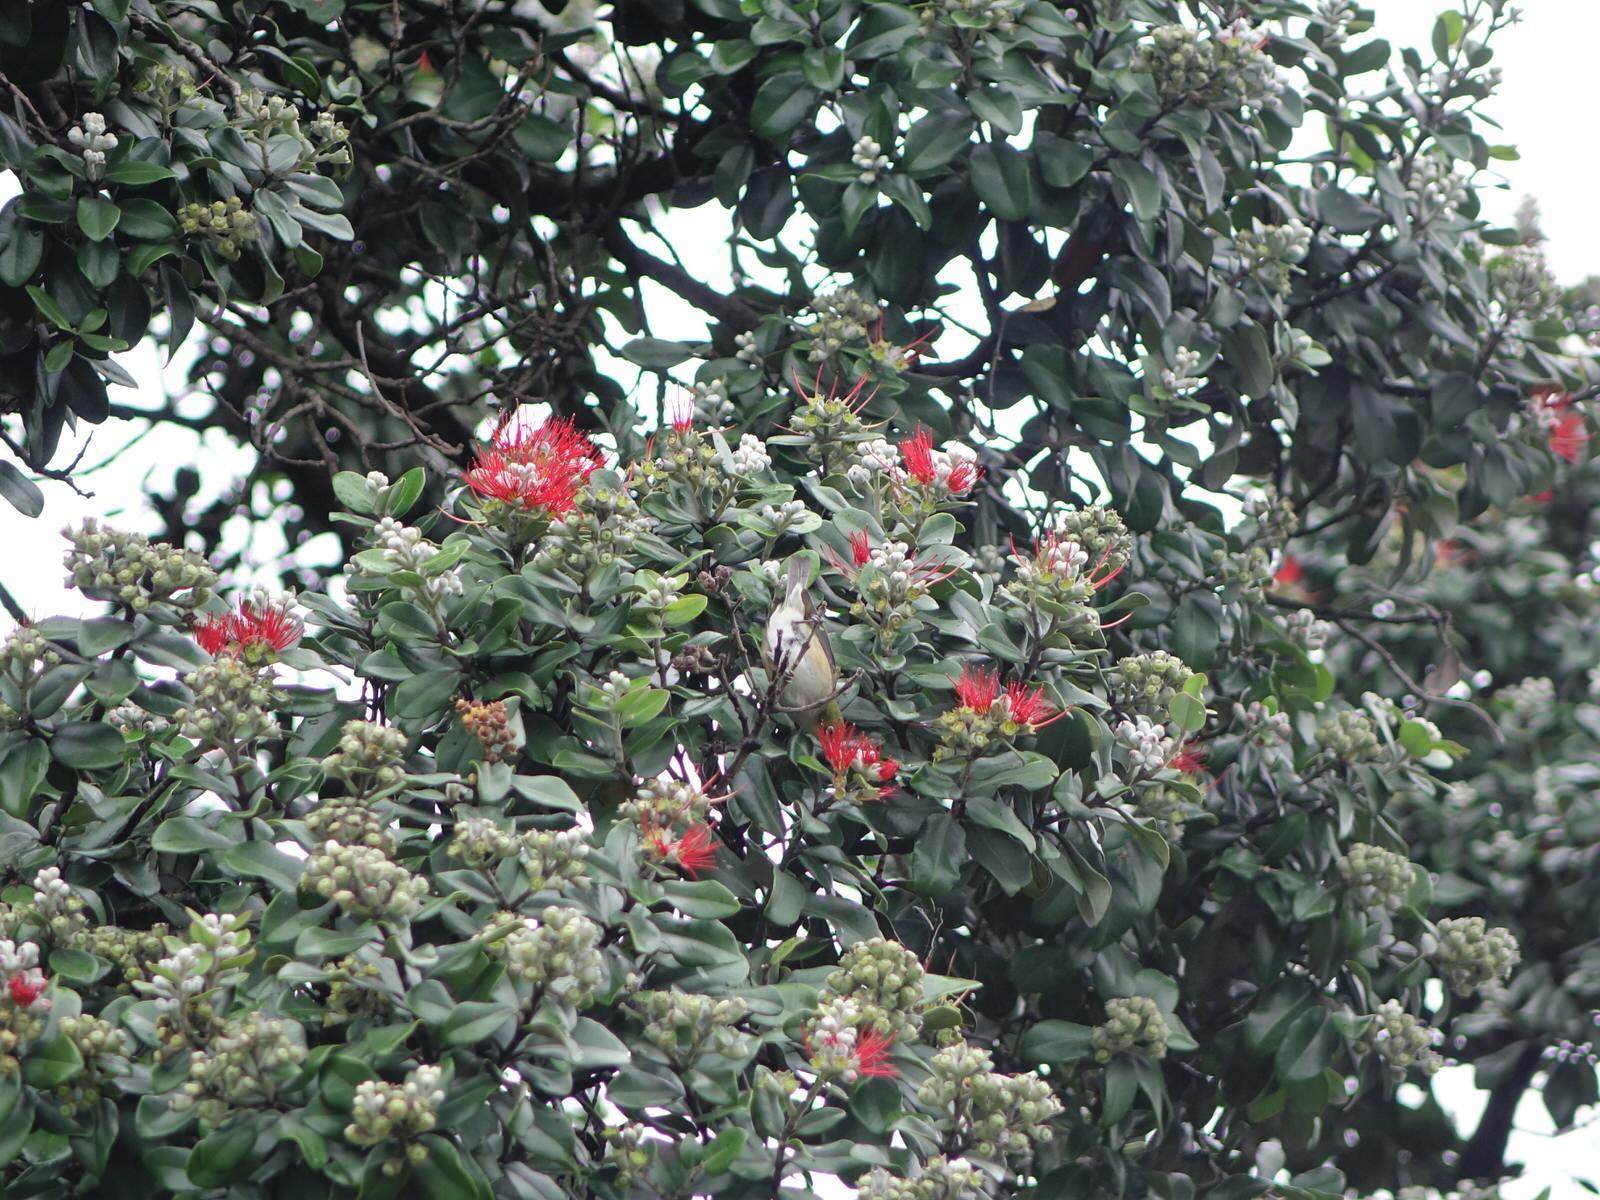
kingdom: Animalia
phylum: Chordata
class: Aves
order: Passeriformes
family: Zosteropidae
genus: Zosterops
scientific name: Zosterops lateralis
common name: Silvereye
